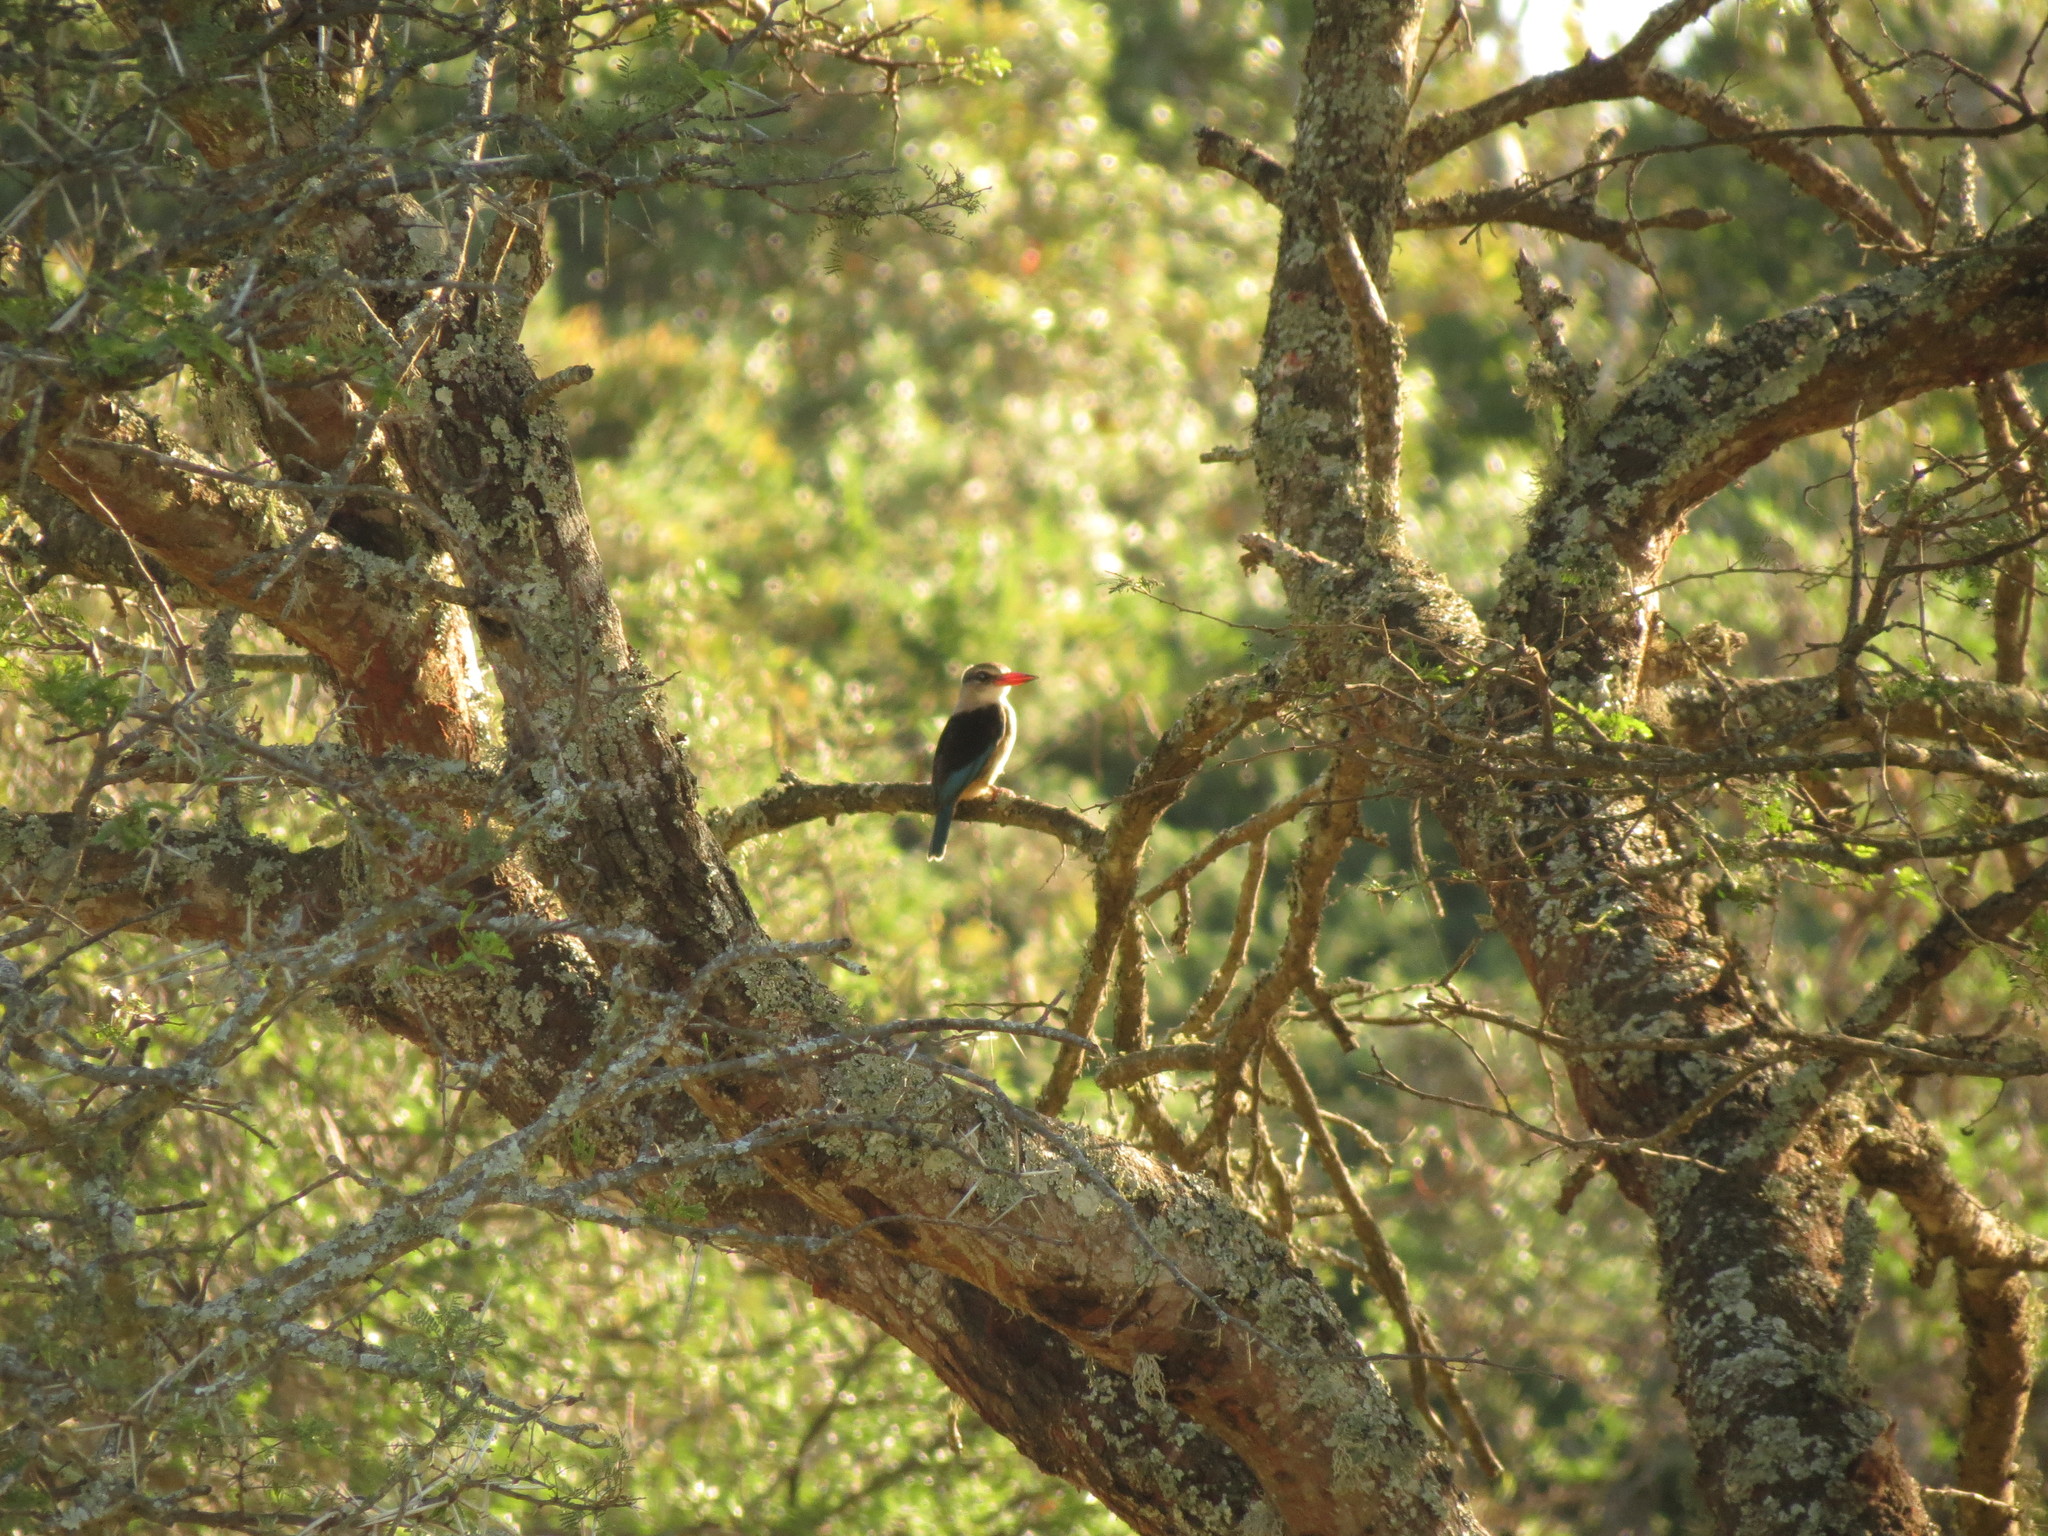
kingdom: Animalia
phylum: Chordata
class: Aves
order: Coraciiformes
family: Alcedinidae
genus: Halcyon
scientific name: Halcyon albiventris
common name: Brown-hooded kingfisher
